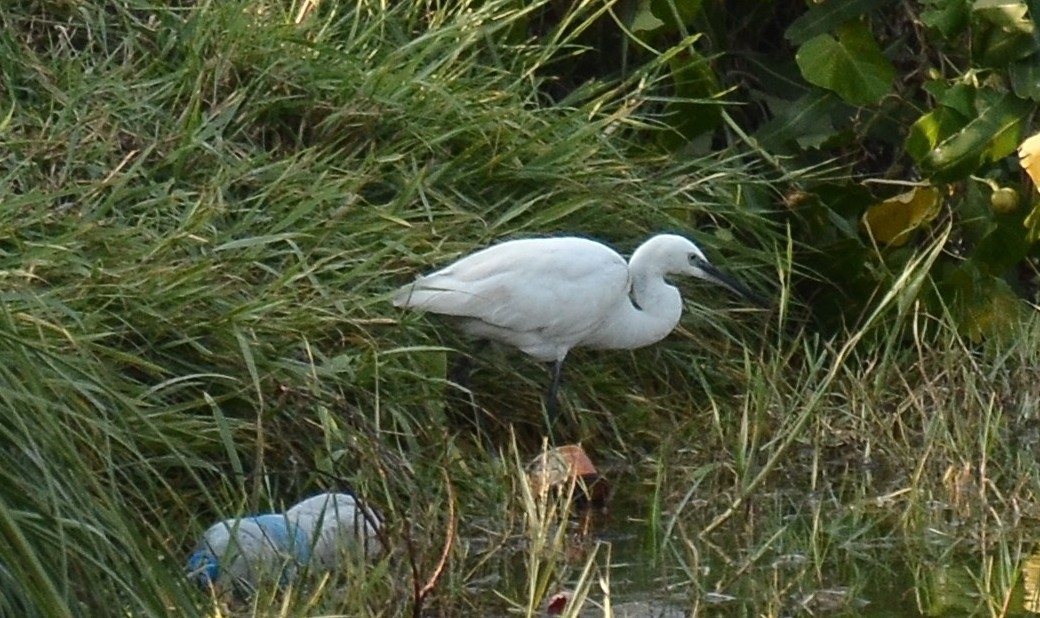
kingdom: Animalia
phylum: Chordata
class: Aves
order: Pelecaniformes
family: Ardeidae
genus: Egretta
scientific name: Egretta garzetta
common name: Little egret
